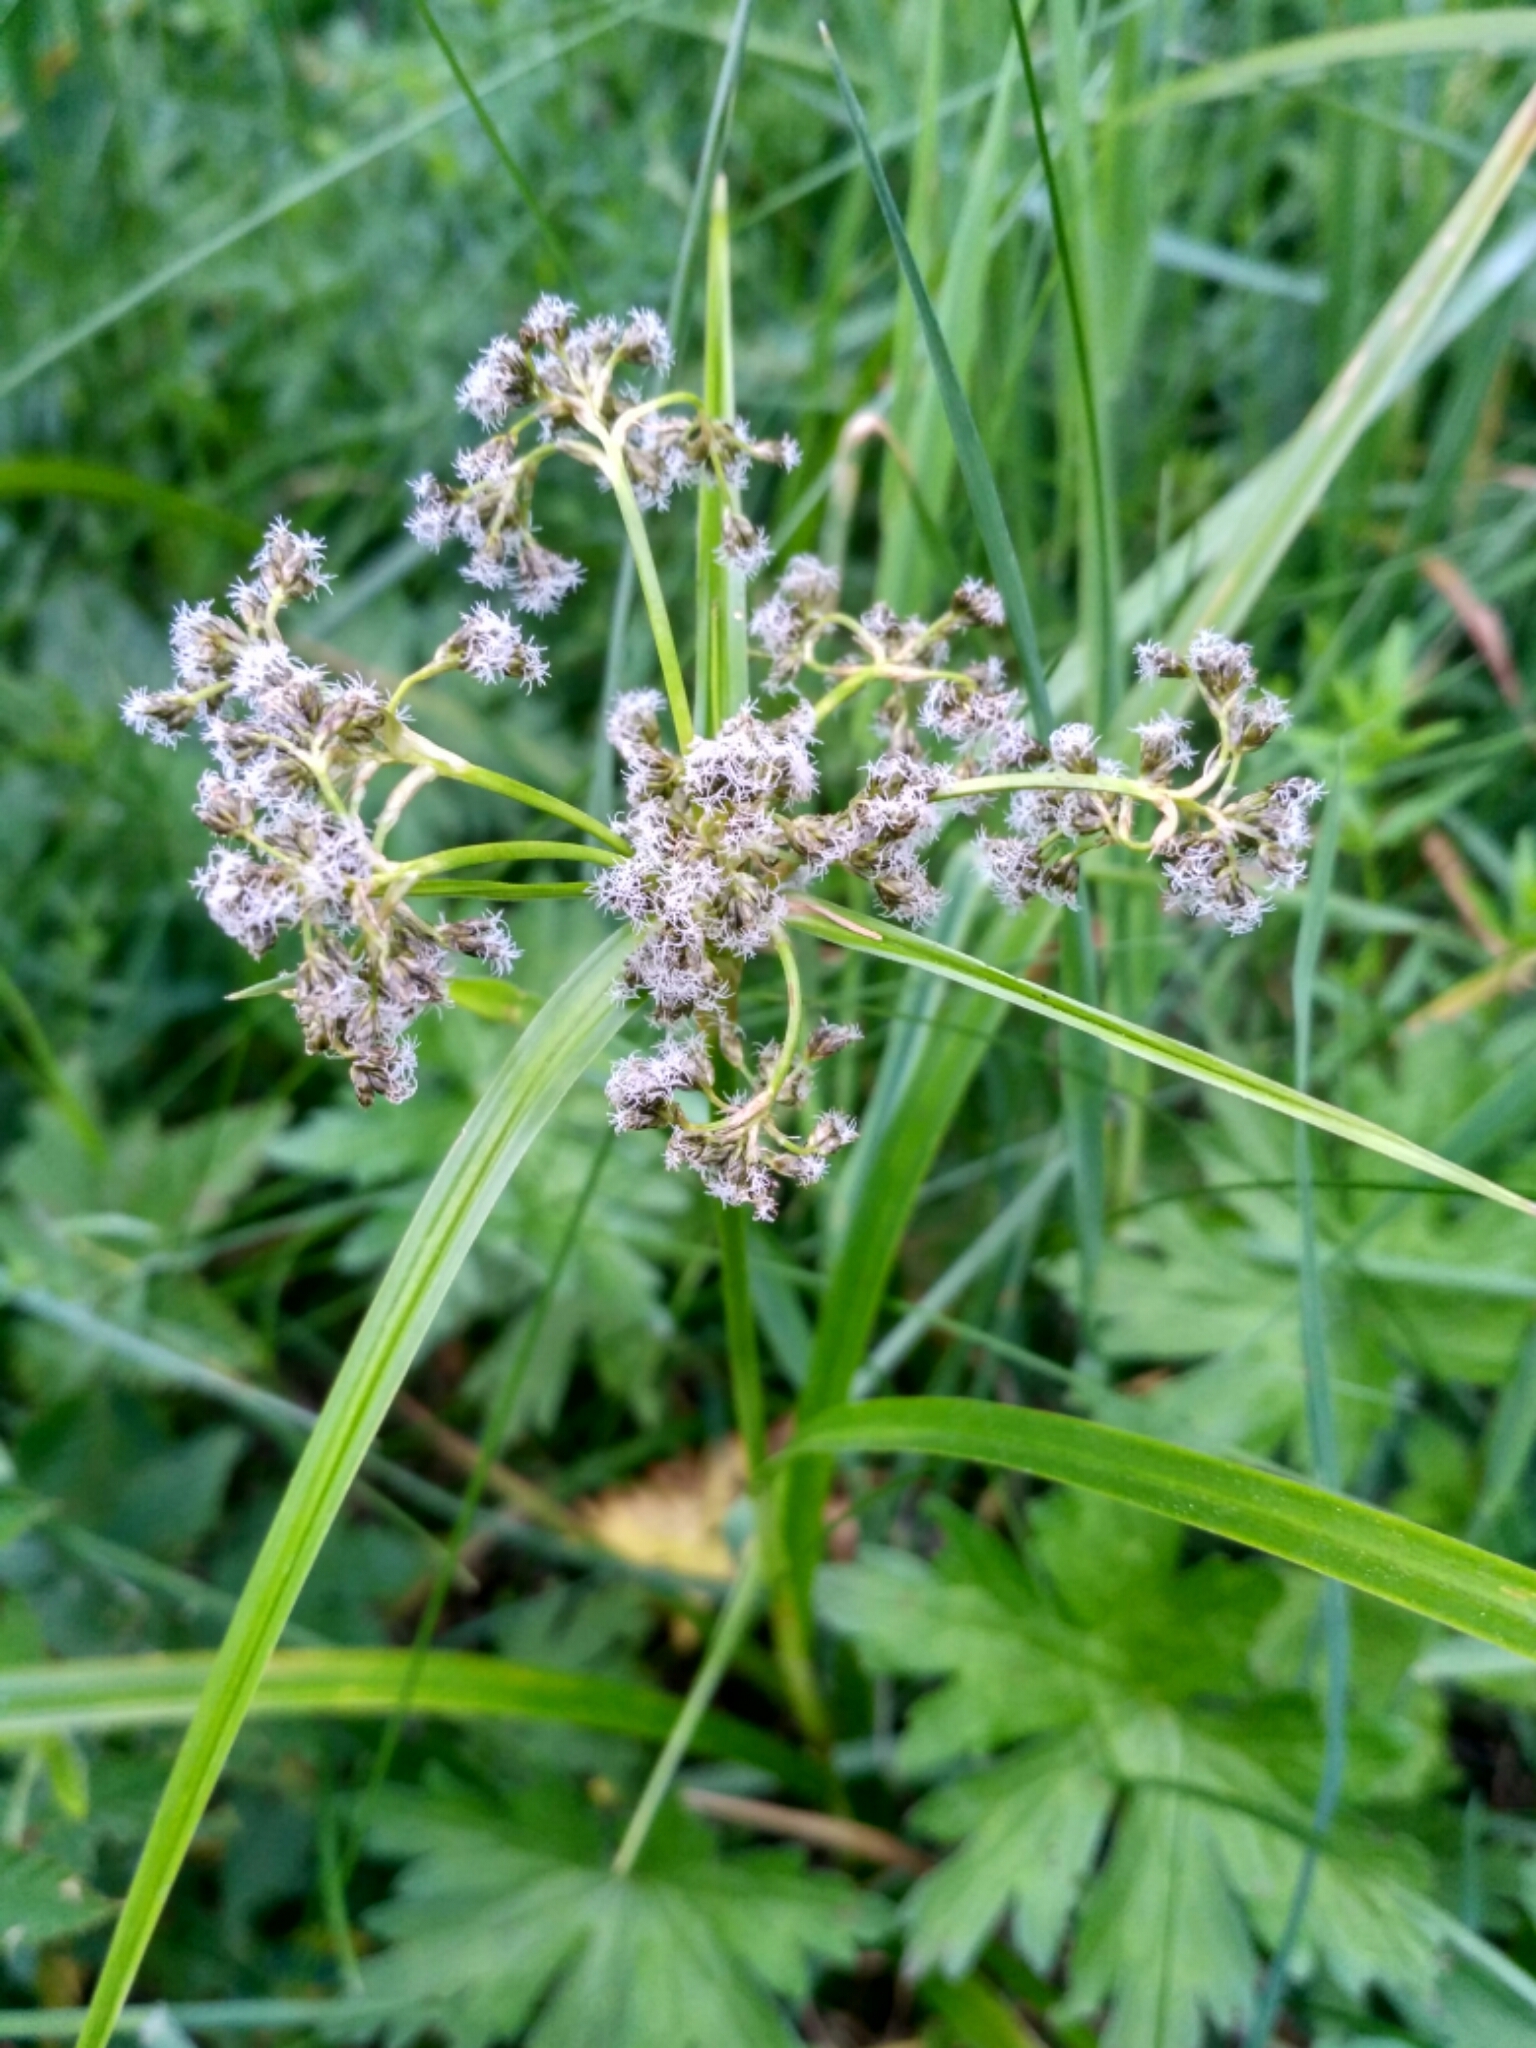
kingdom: Plantae
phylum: Tracheophyta
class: Liliopsida
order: Poales
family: Cyperaceae
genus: Scirpus
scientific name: Scirpus sylvaticus
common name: Wood club-rush
